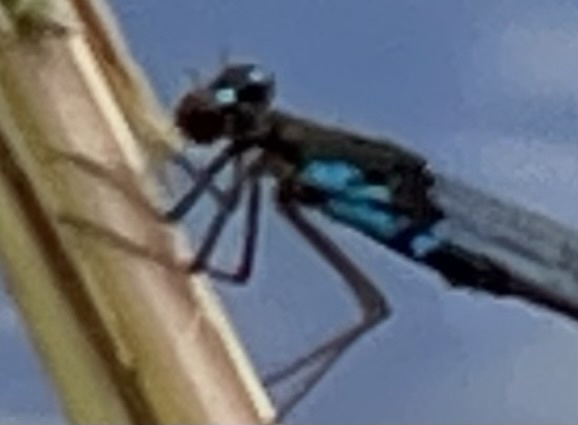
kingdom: Animalia
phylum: Arthropoda
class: Insecta
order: Odonata
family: Coenagrionidae
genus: Pseudagrion
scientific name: Pseudagrion sudanicum
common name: Blue-sided sprite
